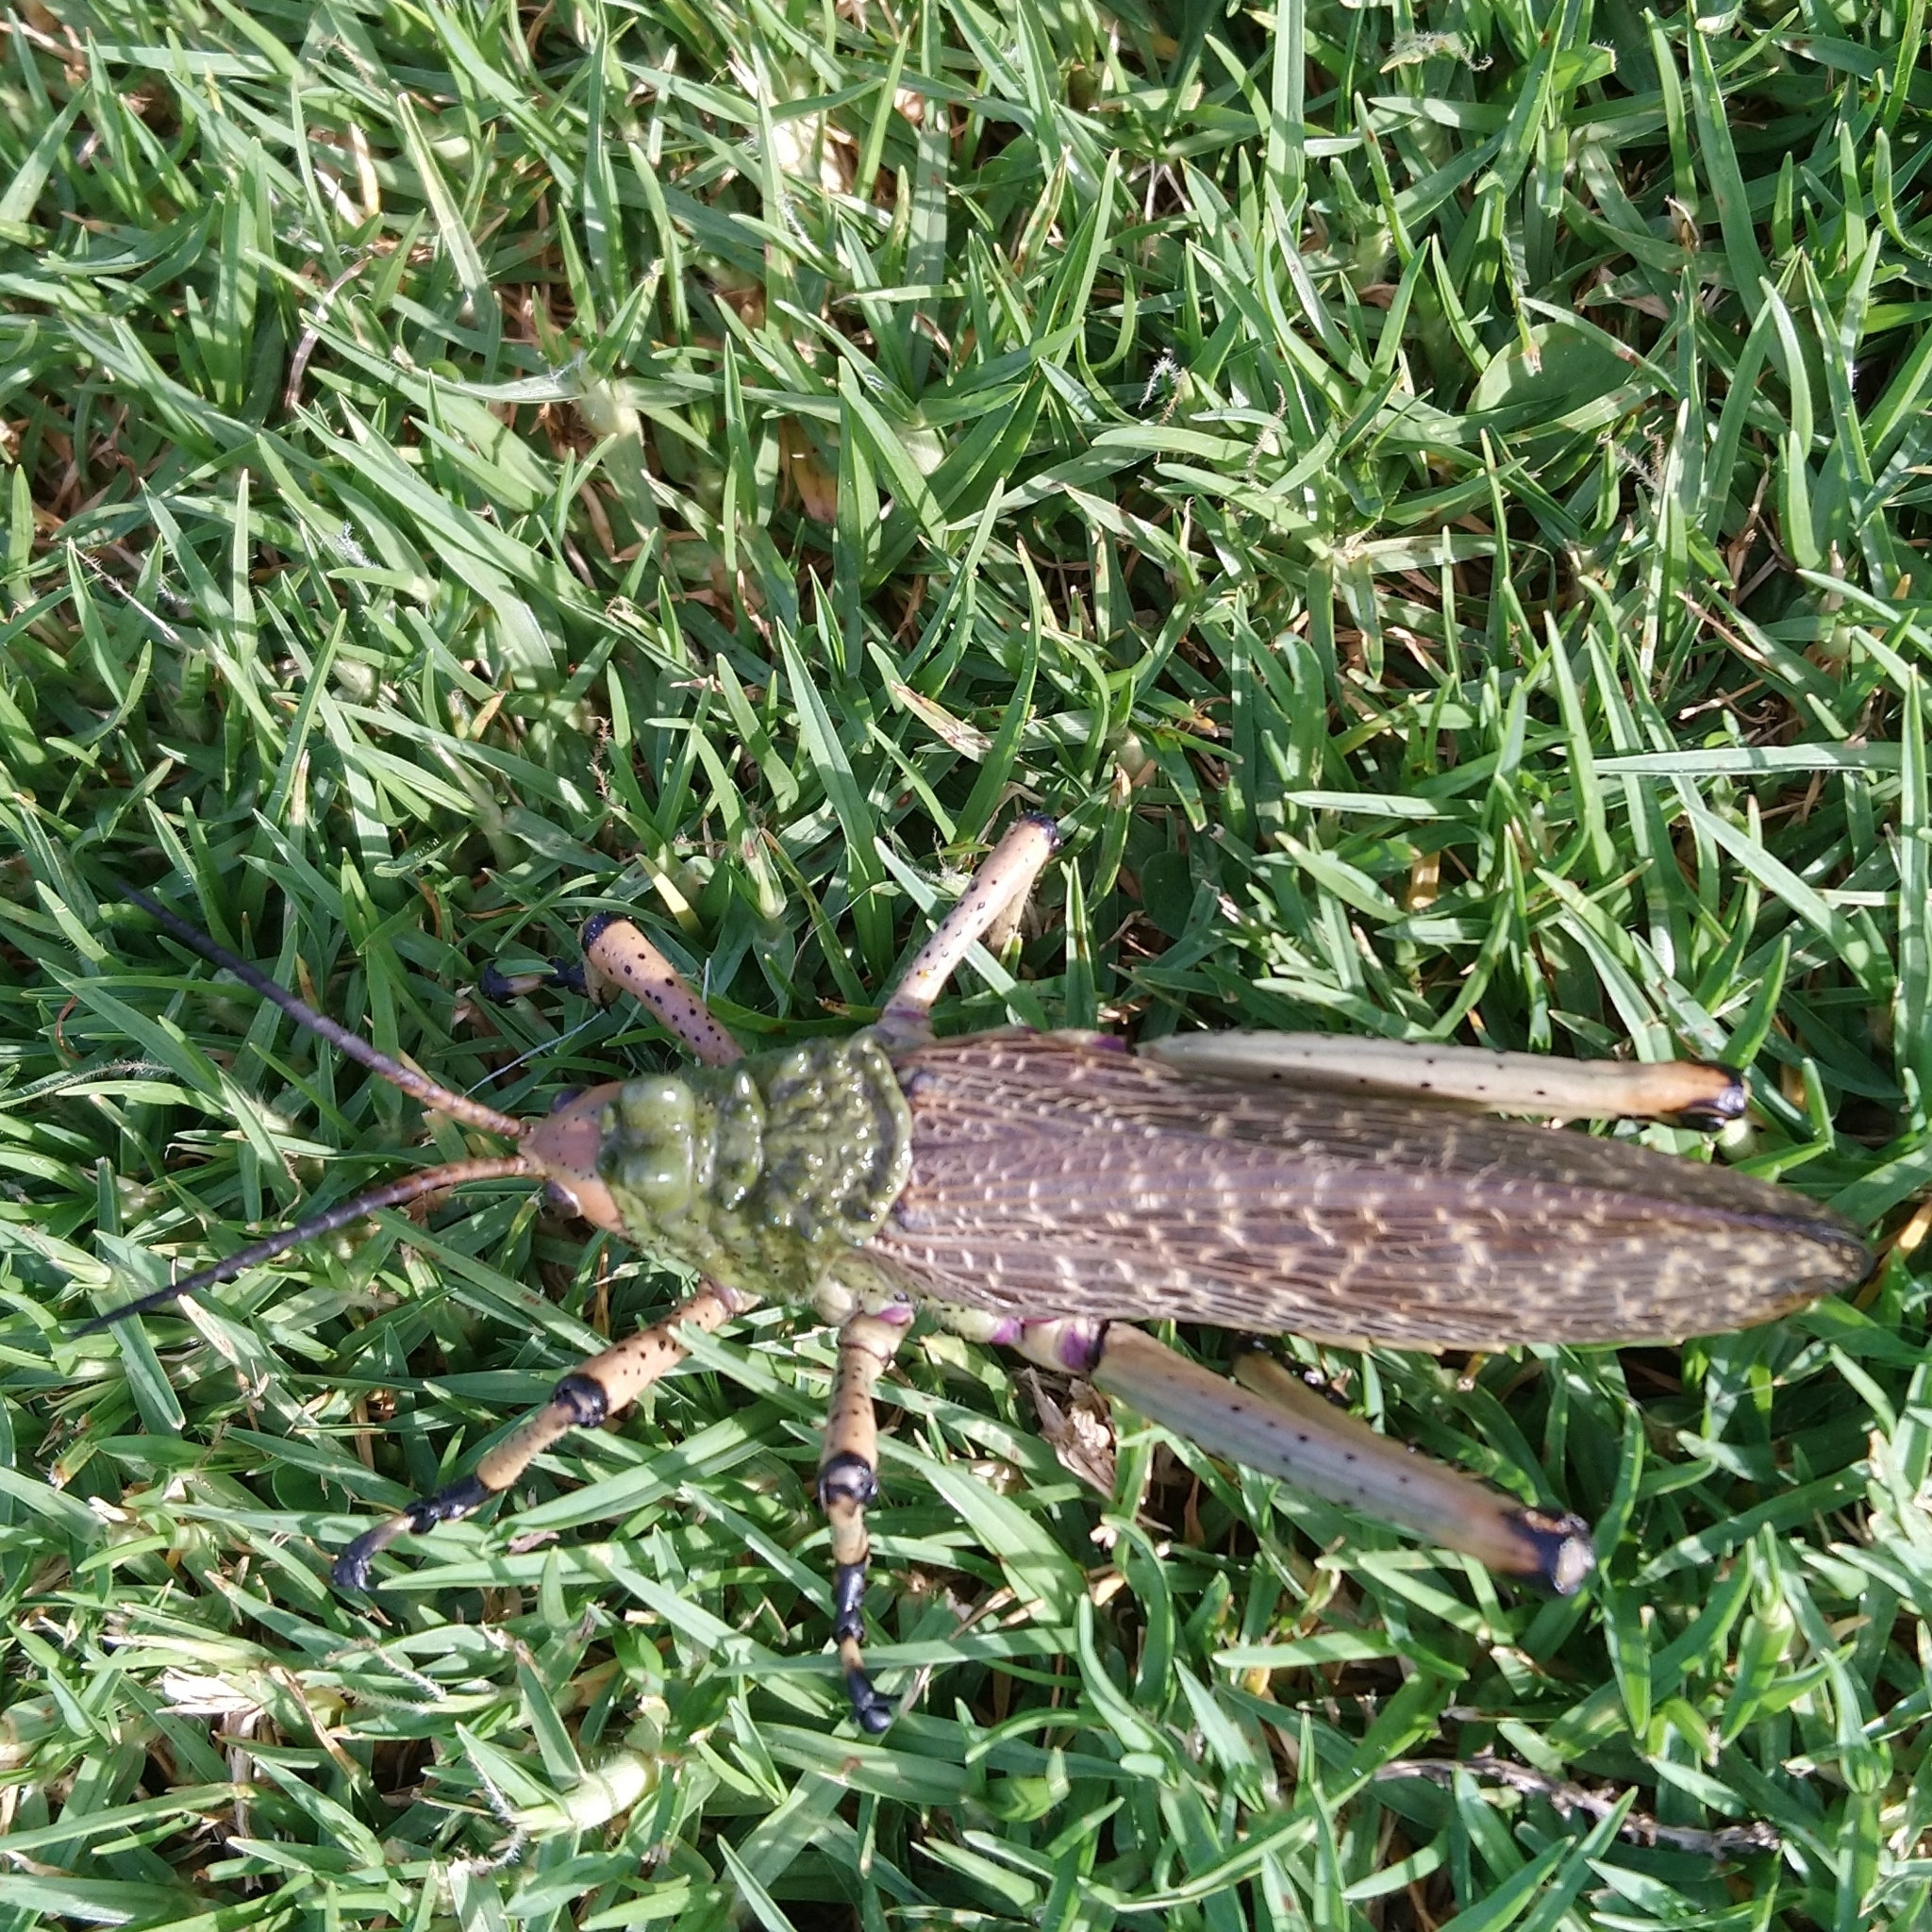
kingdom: Animalia
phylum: Arthropoda
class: Insecta
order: Orthoptera
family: Pyrgomorphidae
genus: Phymateus
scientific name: Phymateus leprosus
